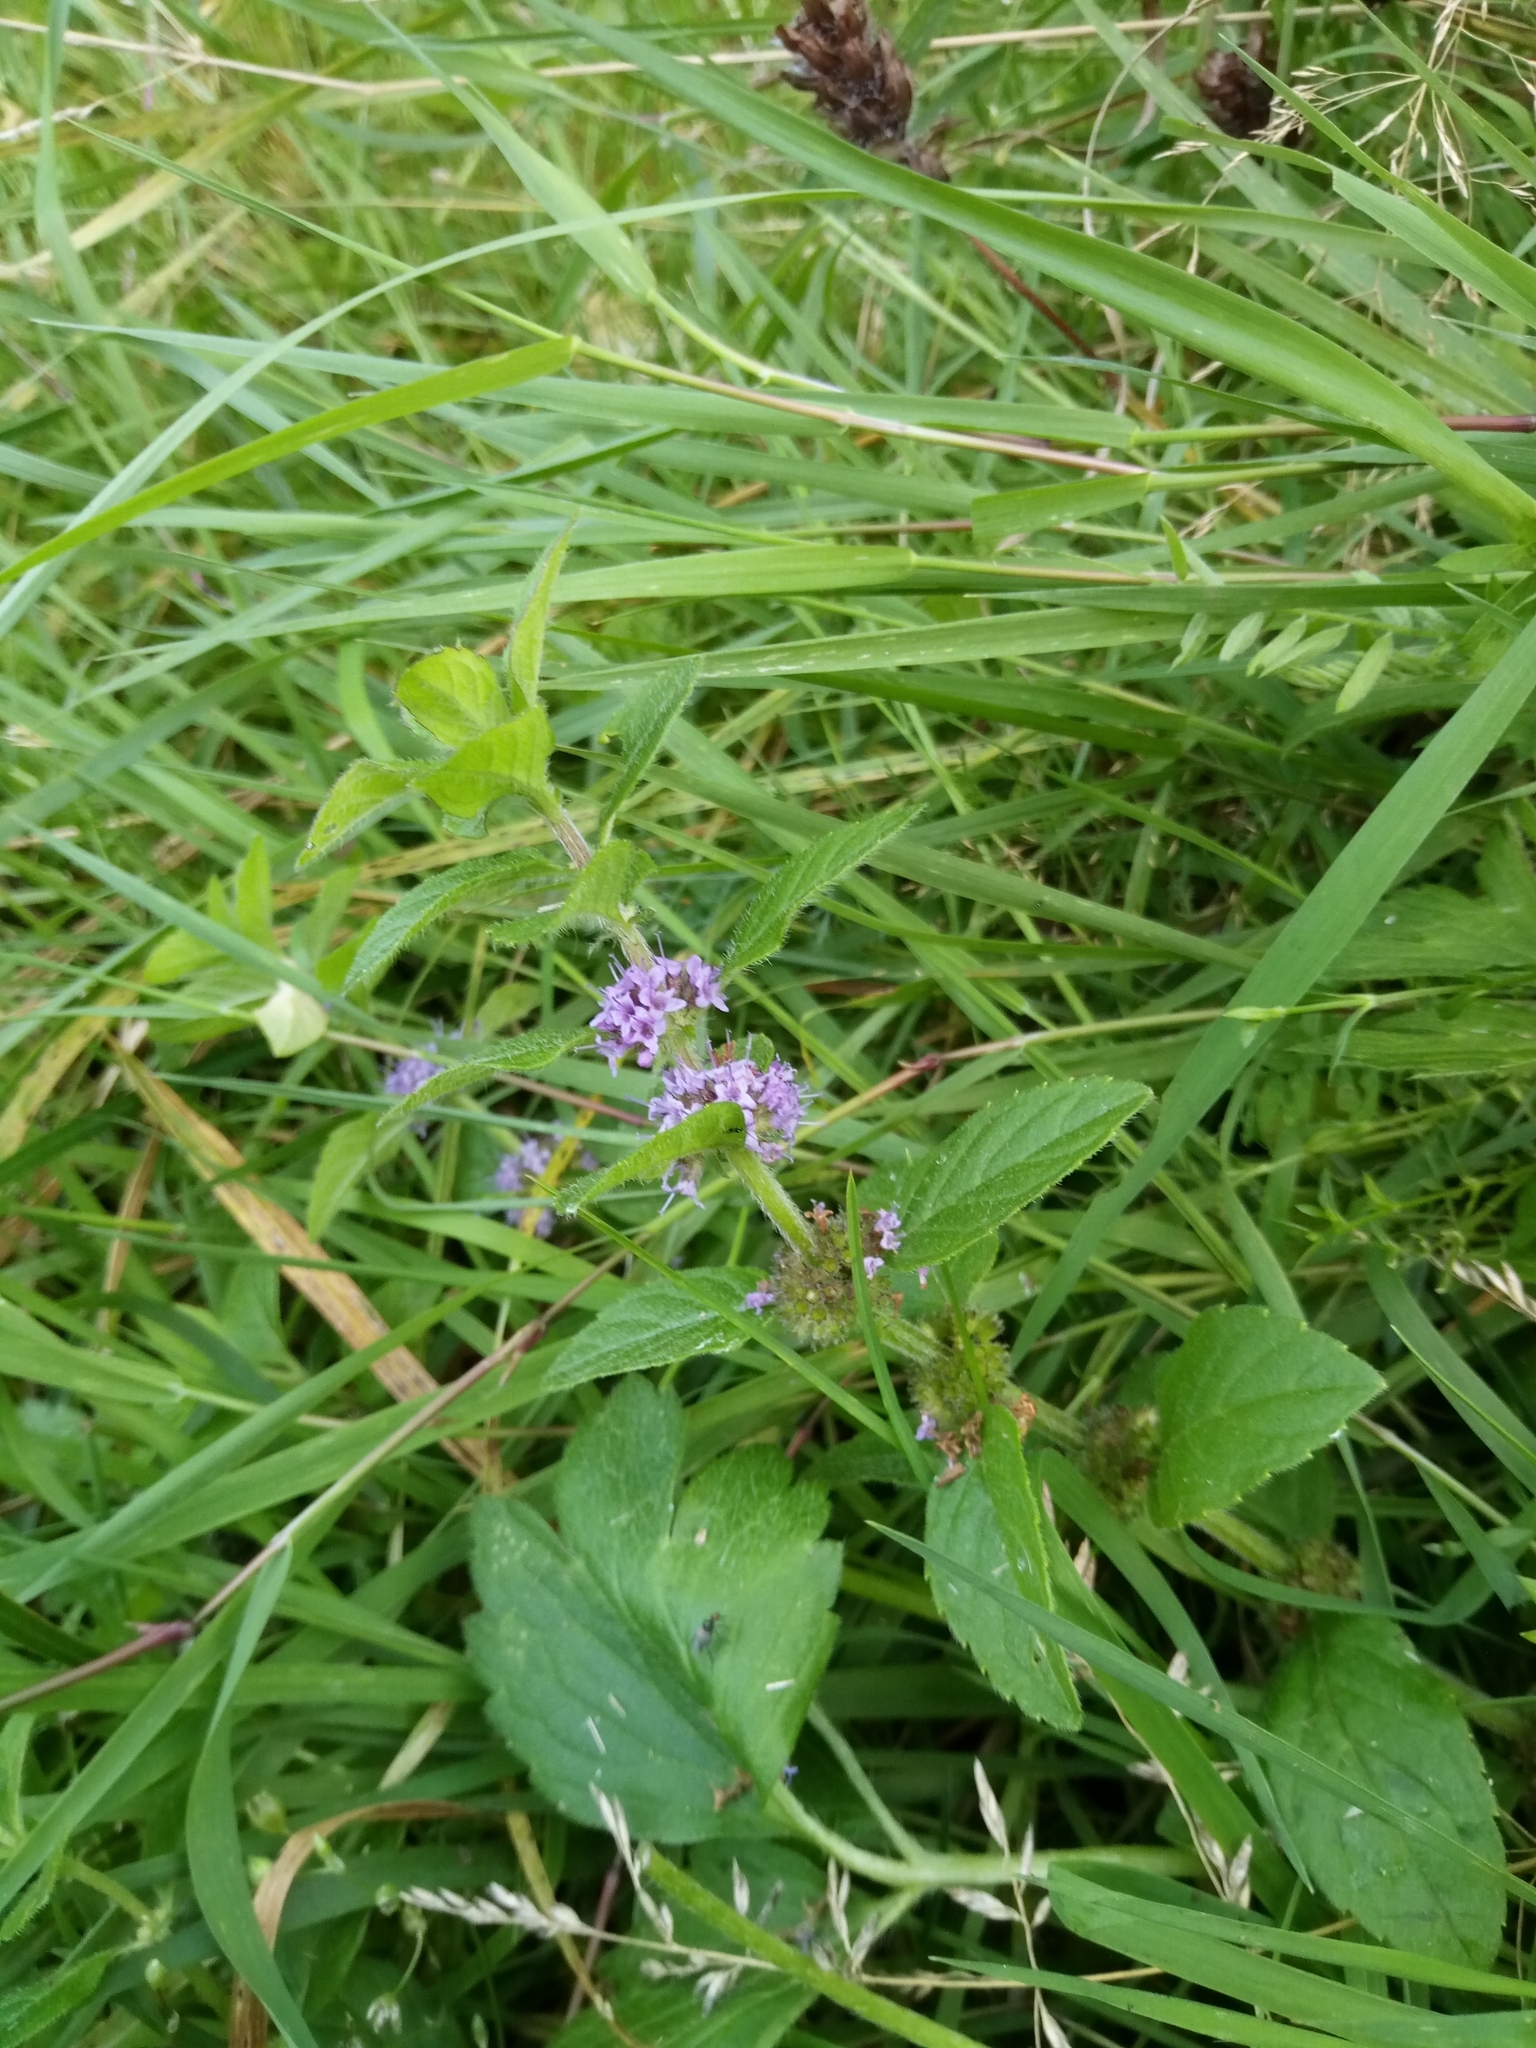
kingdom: Plantae
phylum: Tracheophyta
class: Magnoliopsida
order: Lamiales
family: Lamiaceae
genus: Mentha
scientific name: Mentha arvensis
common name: Corn mint
